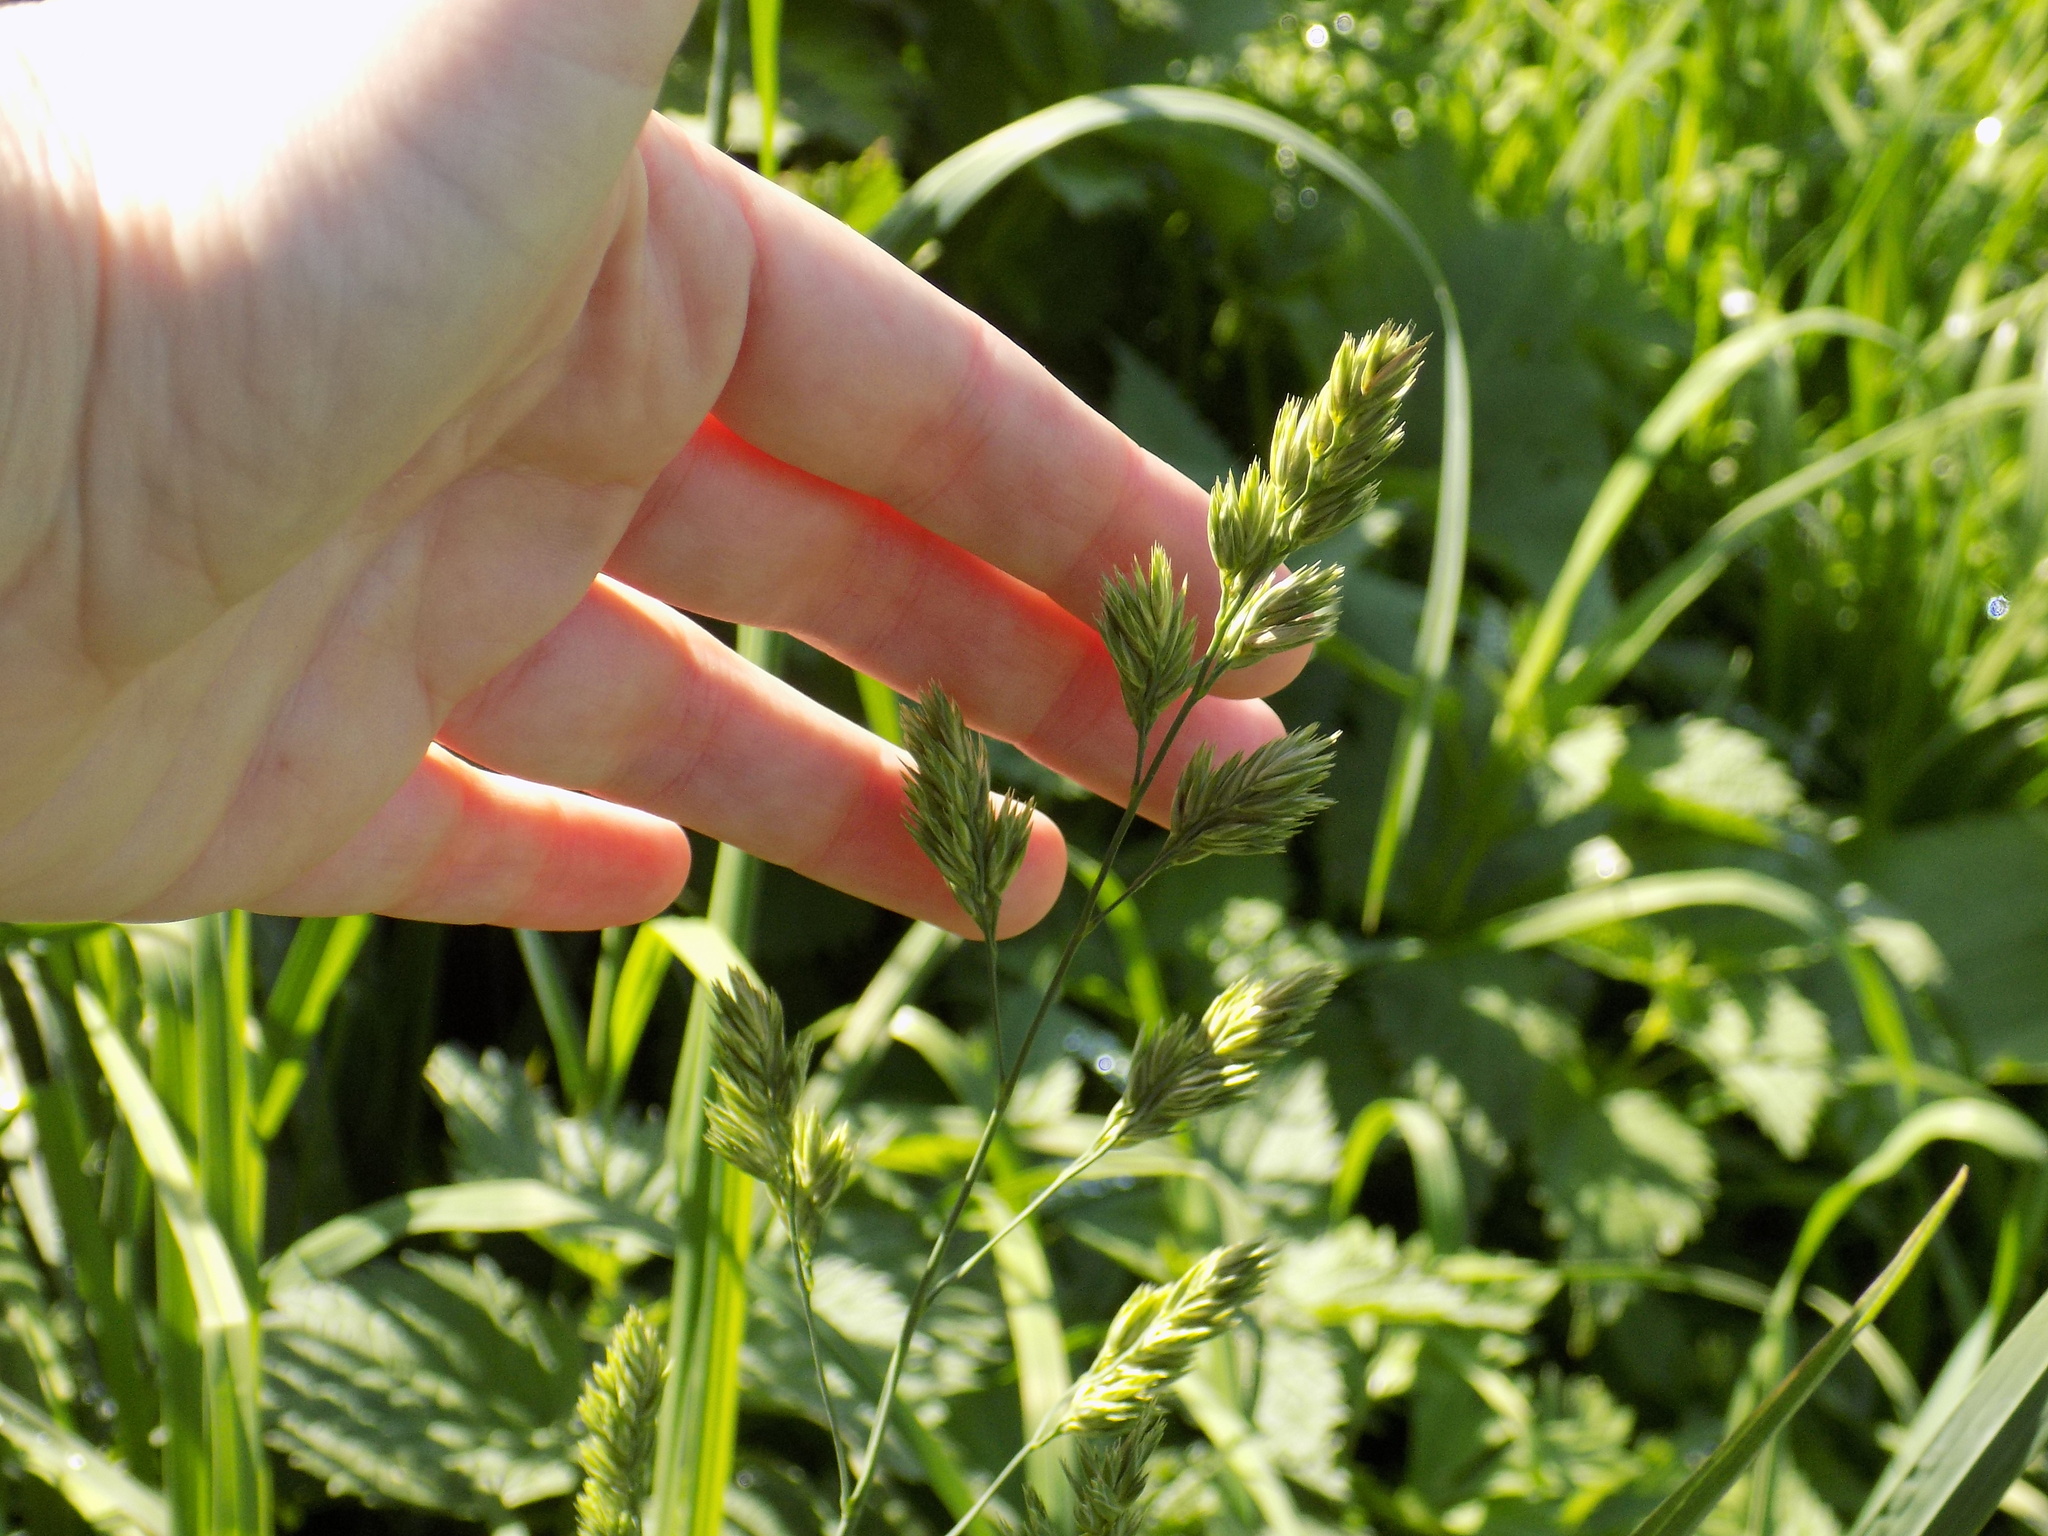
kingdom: Plantae
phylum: Tracheophyta
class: Liliopsida
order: Poales
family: Poaceae
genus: Dactylis
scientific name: Dactylis glomerata
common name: Orchardgrass
